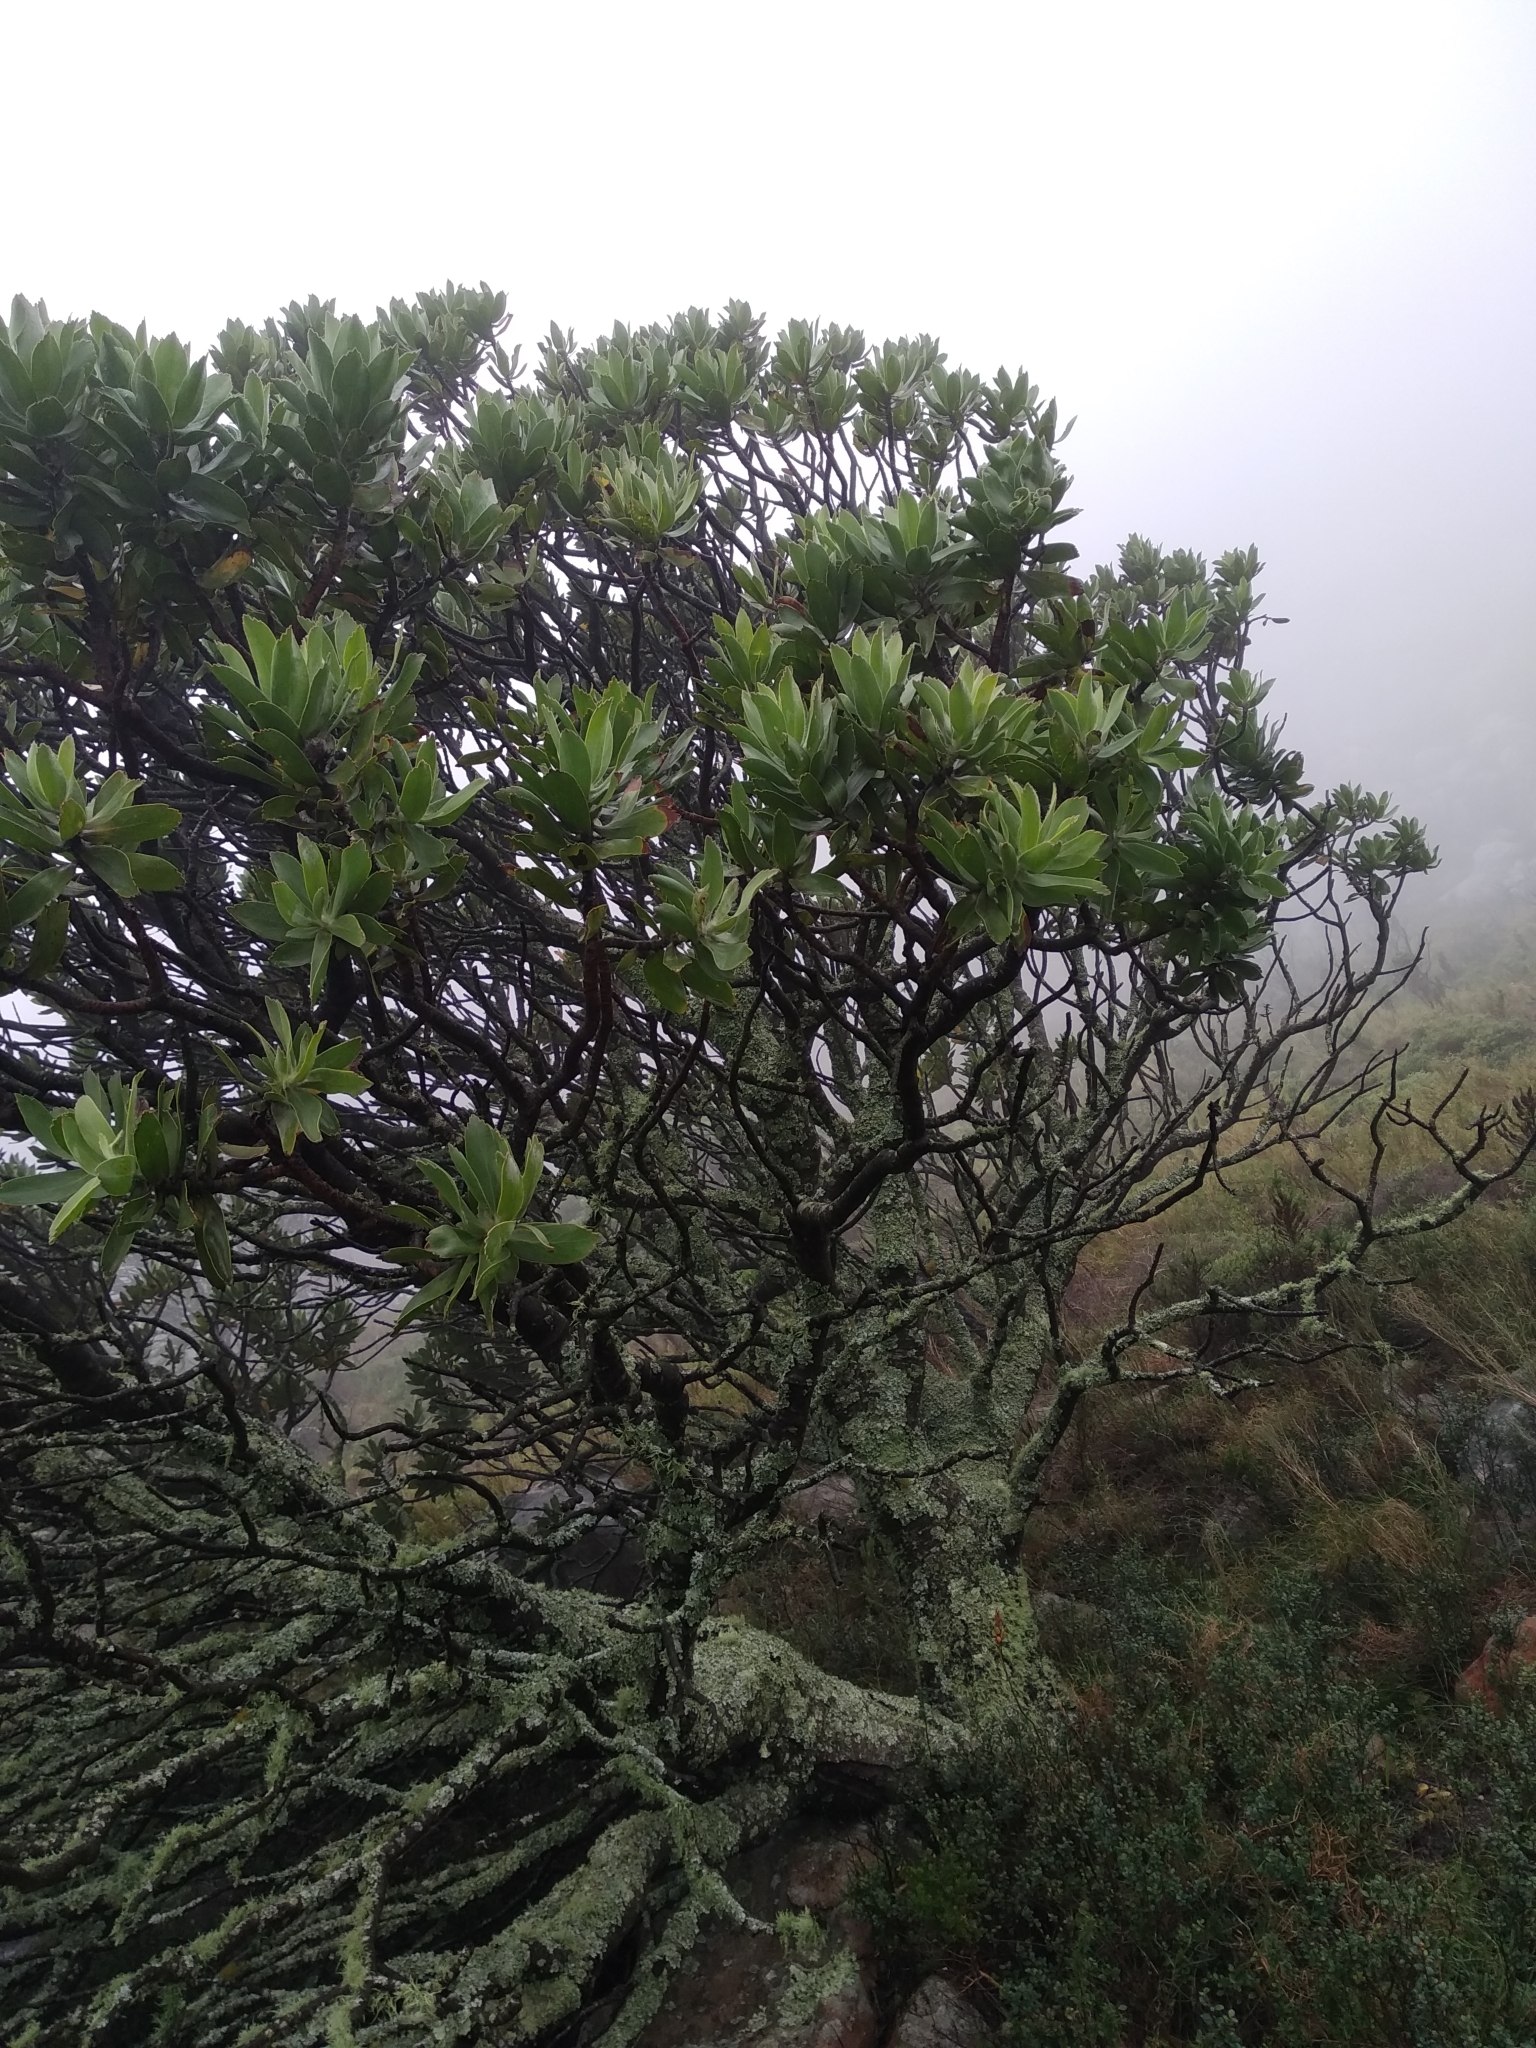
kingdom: Plantae
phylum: Tracheophyta
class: Magnoliopsida
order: Proteales
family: Proteaceae
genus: Leucospermum
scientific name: Leucospermum conocarpodendron
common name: Tree pincushion
